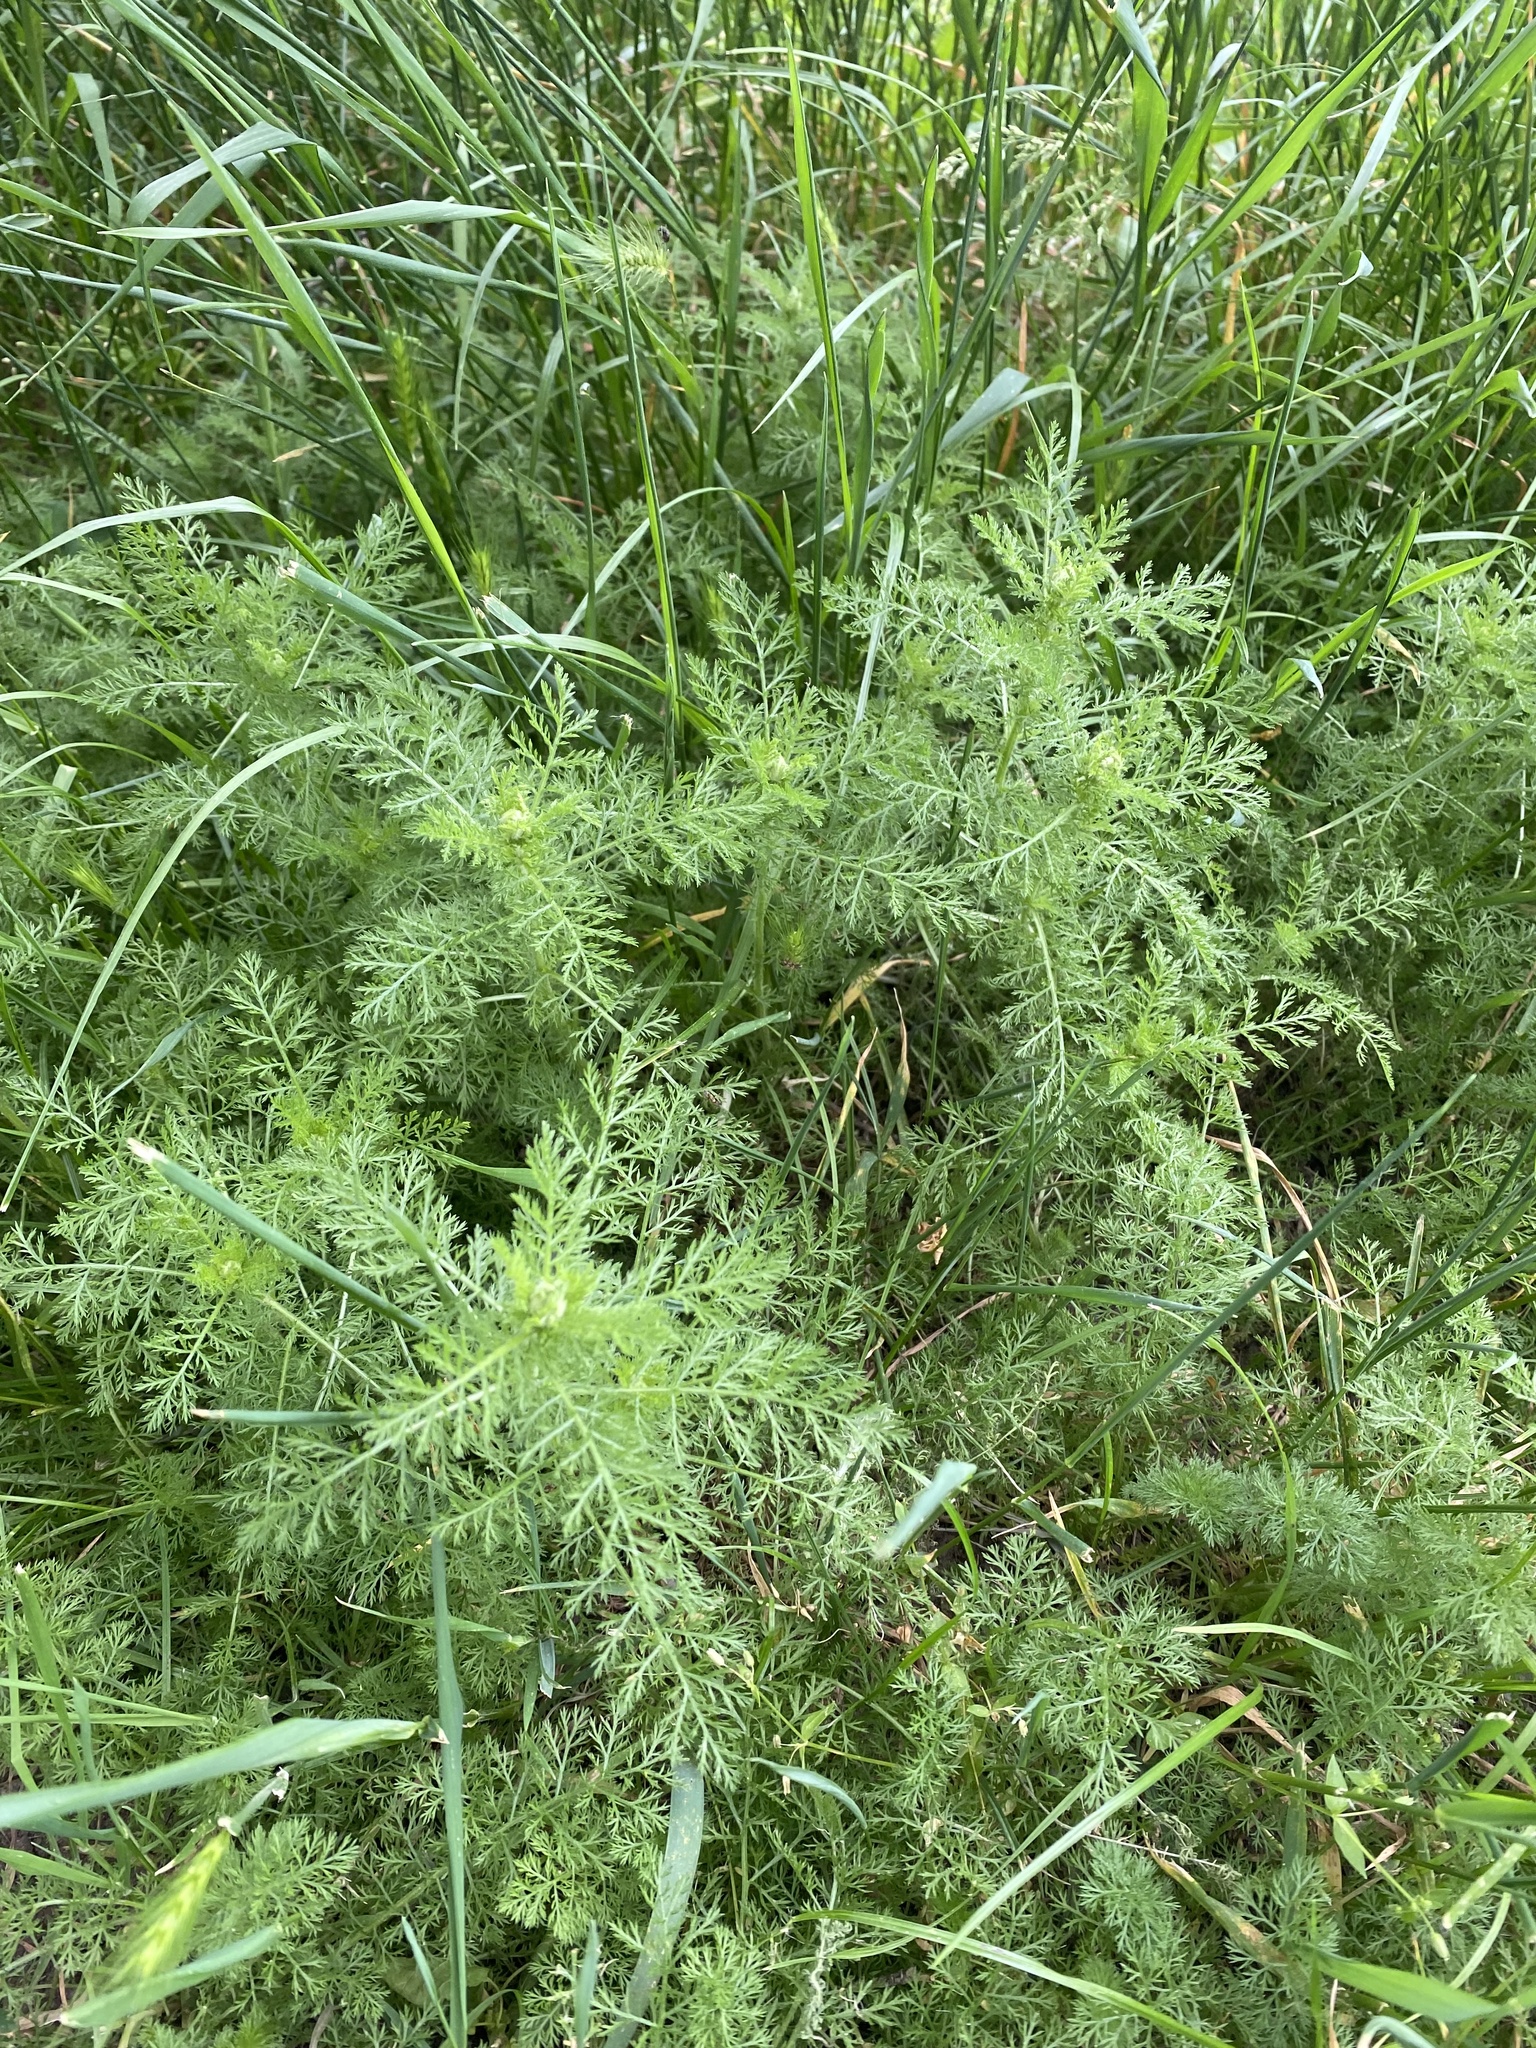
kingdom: Plantae
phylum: Tracheophyta
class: Magnoliopsida
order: Asterales
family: Asteraceae
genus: Achillea
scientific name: Achillea nobilis
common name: Noble yarrow
